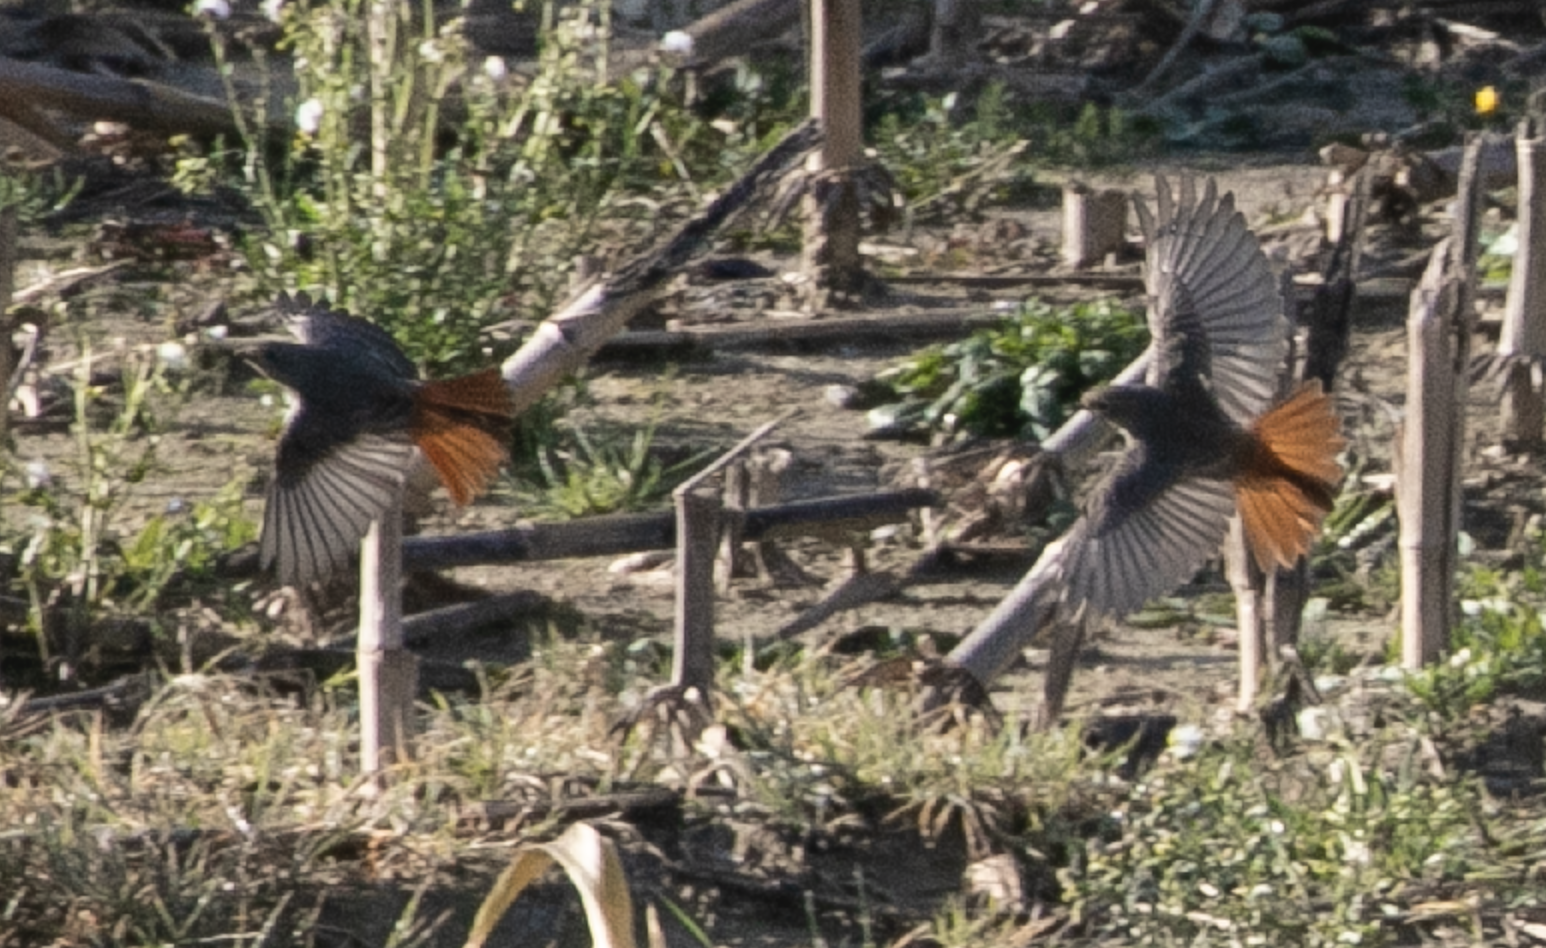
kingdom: Animalia
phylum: Chordata
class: Aves
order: Passeriformes
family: Muscicapidae
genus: Phoenicurus
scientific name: Phoenicurus ochruros
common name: Black redstart
